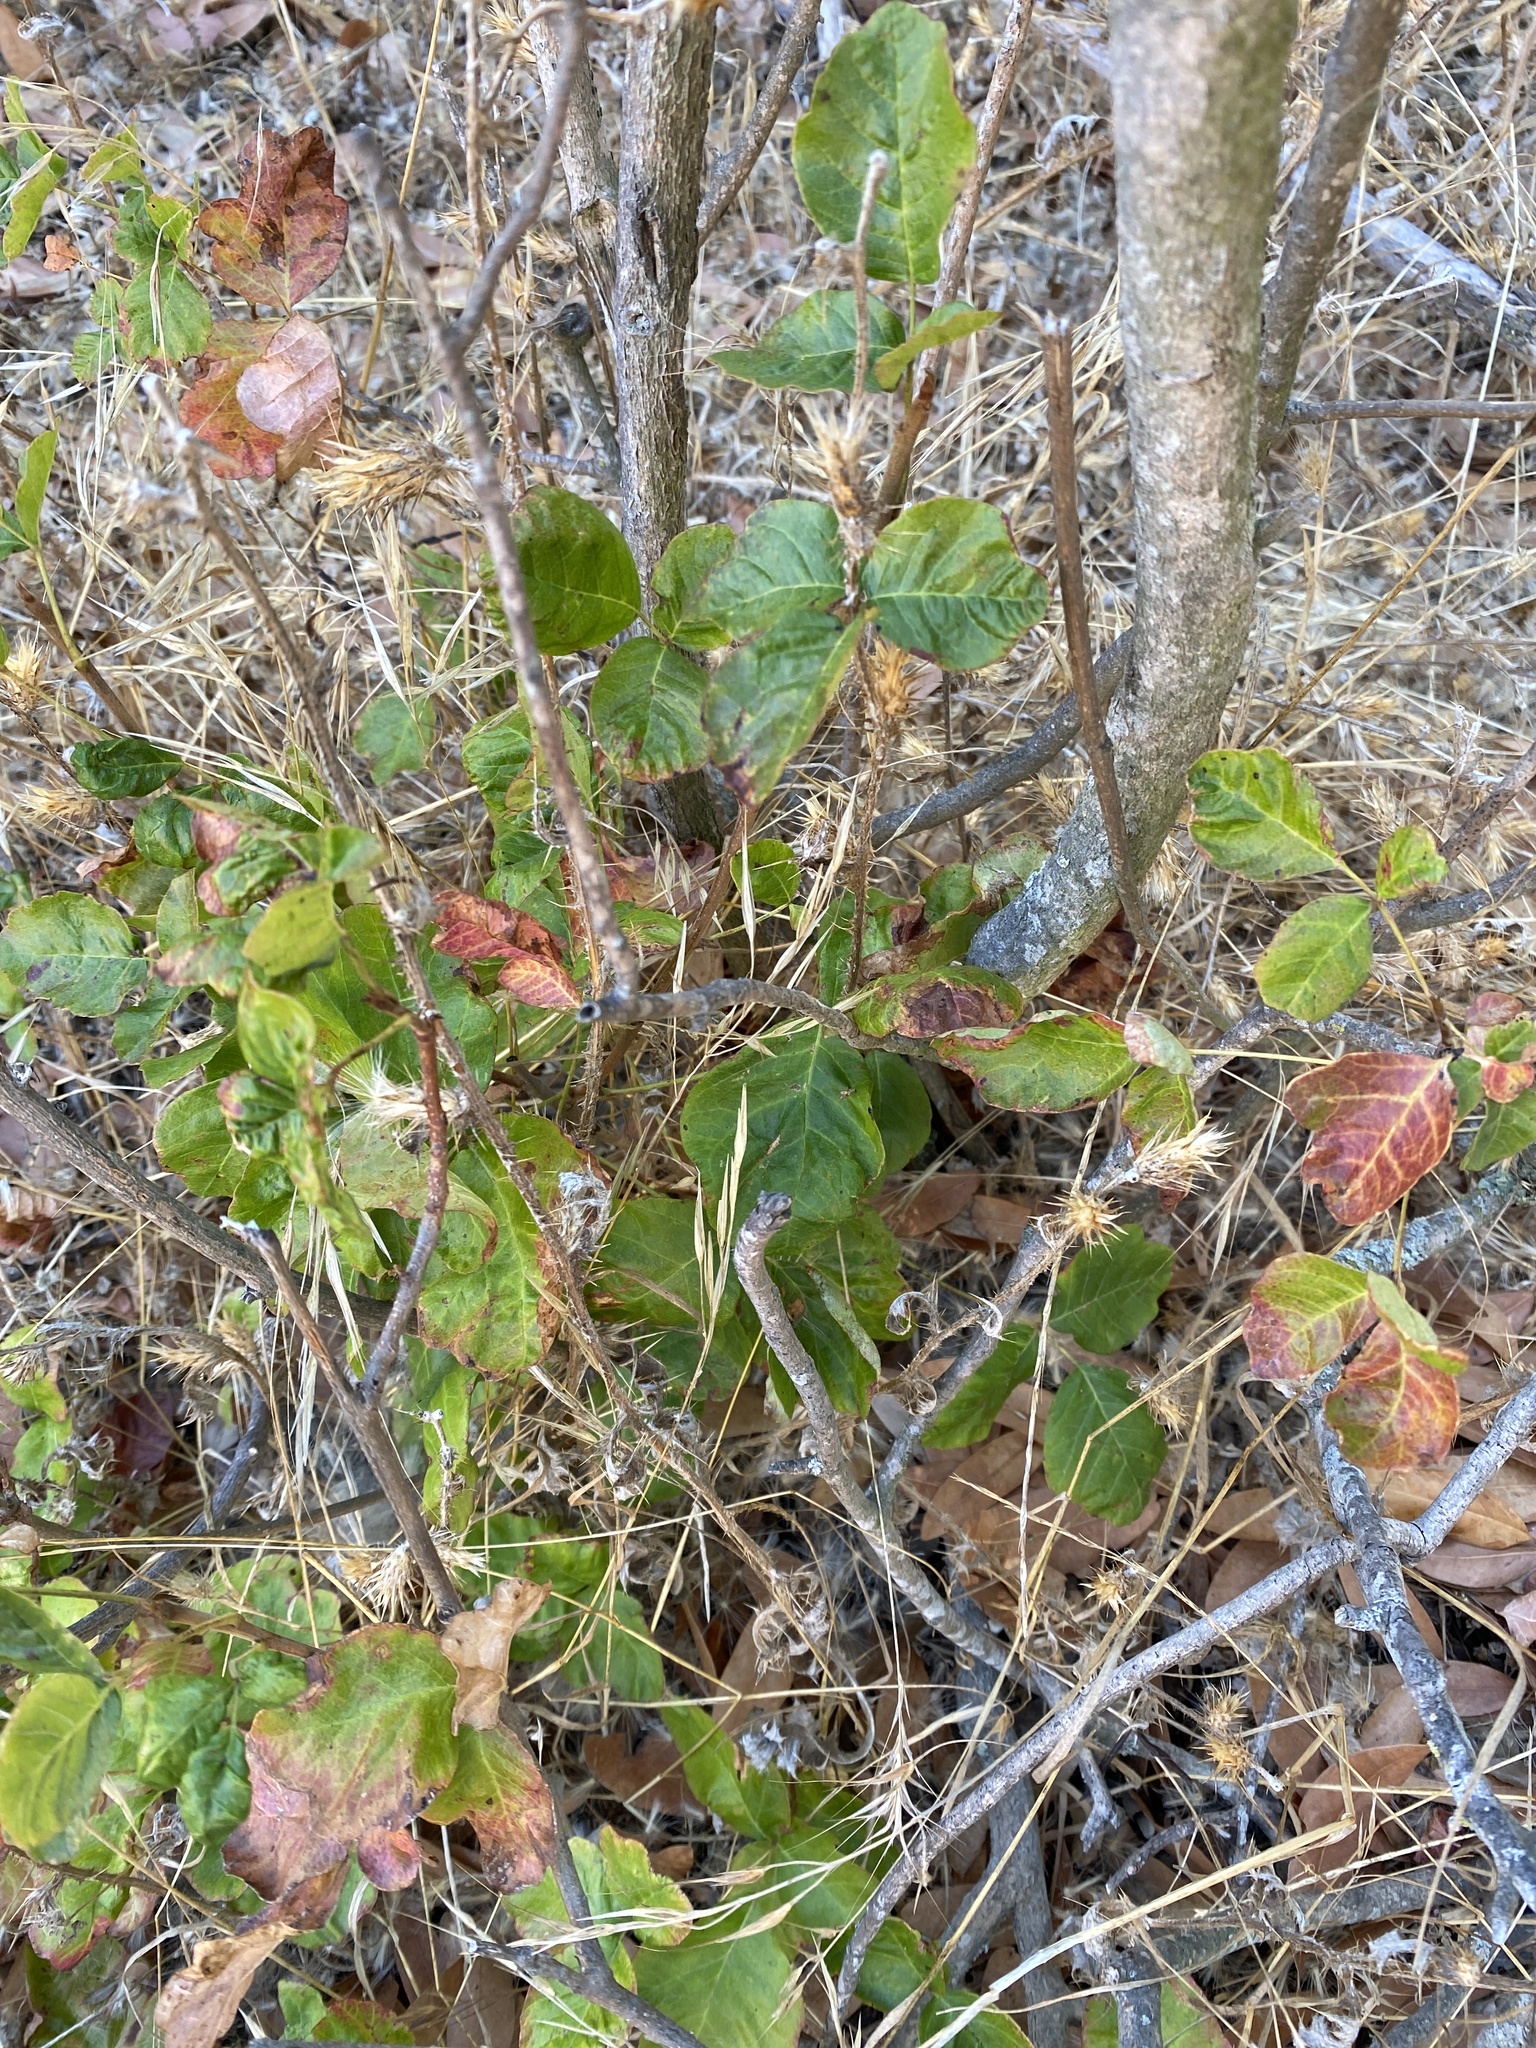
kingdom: Plantae
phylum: Tracheophyta
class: Magnoliopsida
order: Sapindales
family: Anacardiaceae
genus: Toxicodendron
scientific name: Toxicodendron diversilobum
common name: Pacific poison-oak
